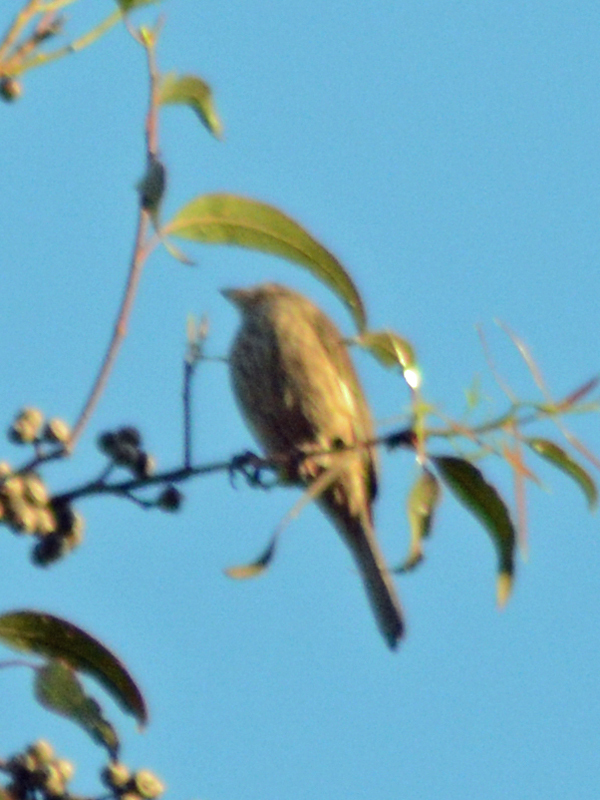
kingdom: Animalia
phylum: Chordata
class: Aves
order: Passeriformes
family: Fringillidae
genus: Haemorhous
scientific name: Haemorhous mexicanus
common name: House finch
